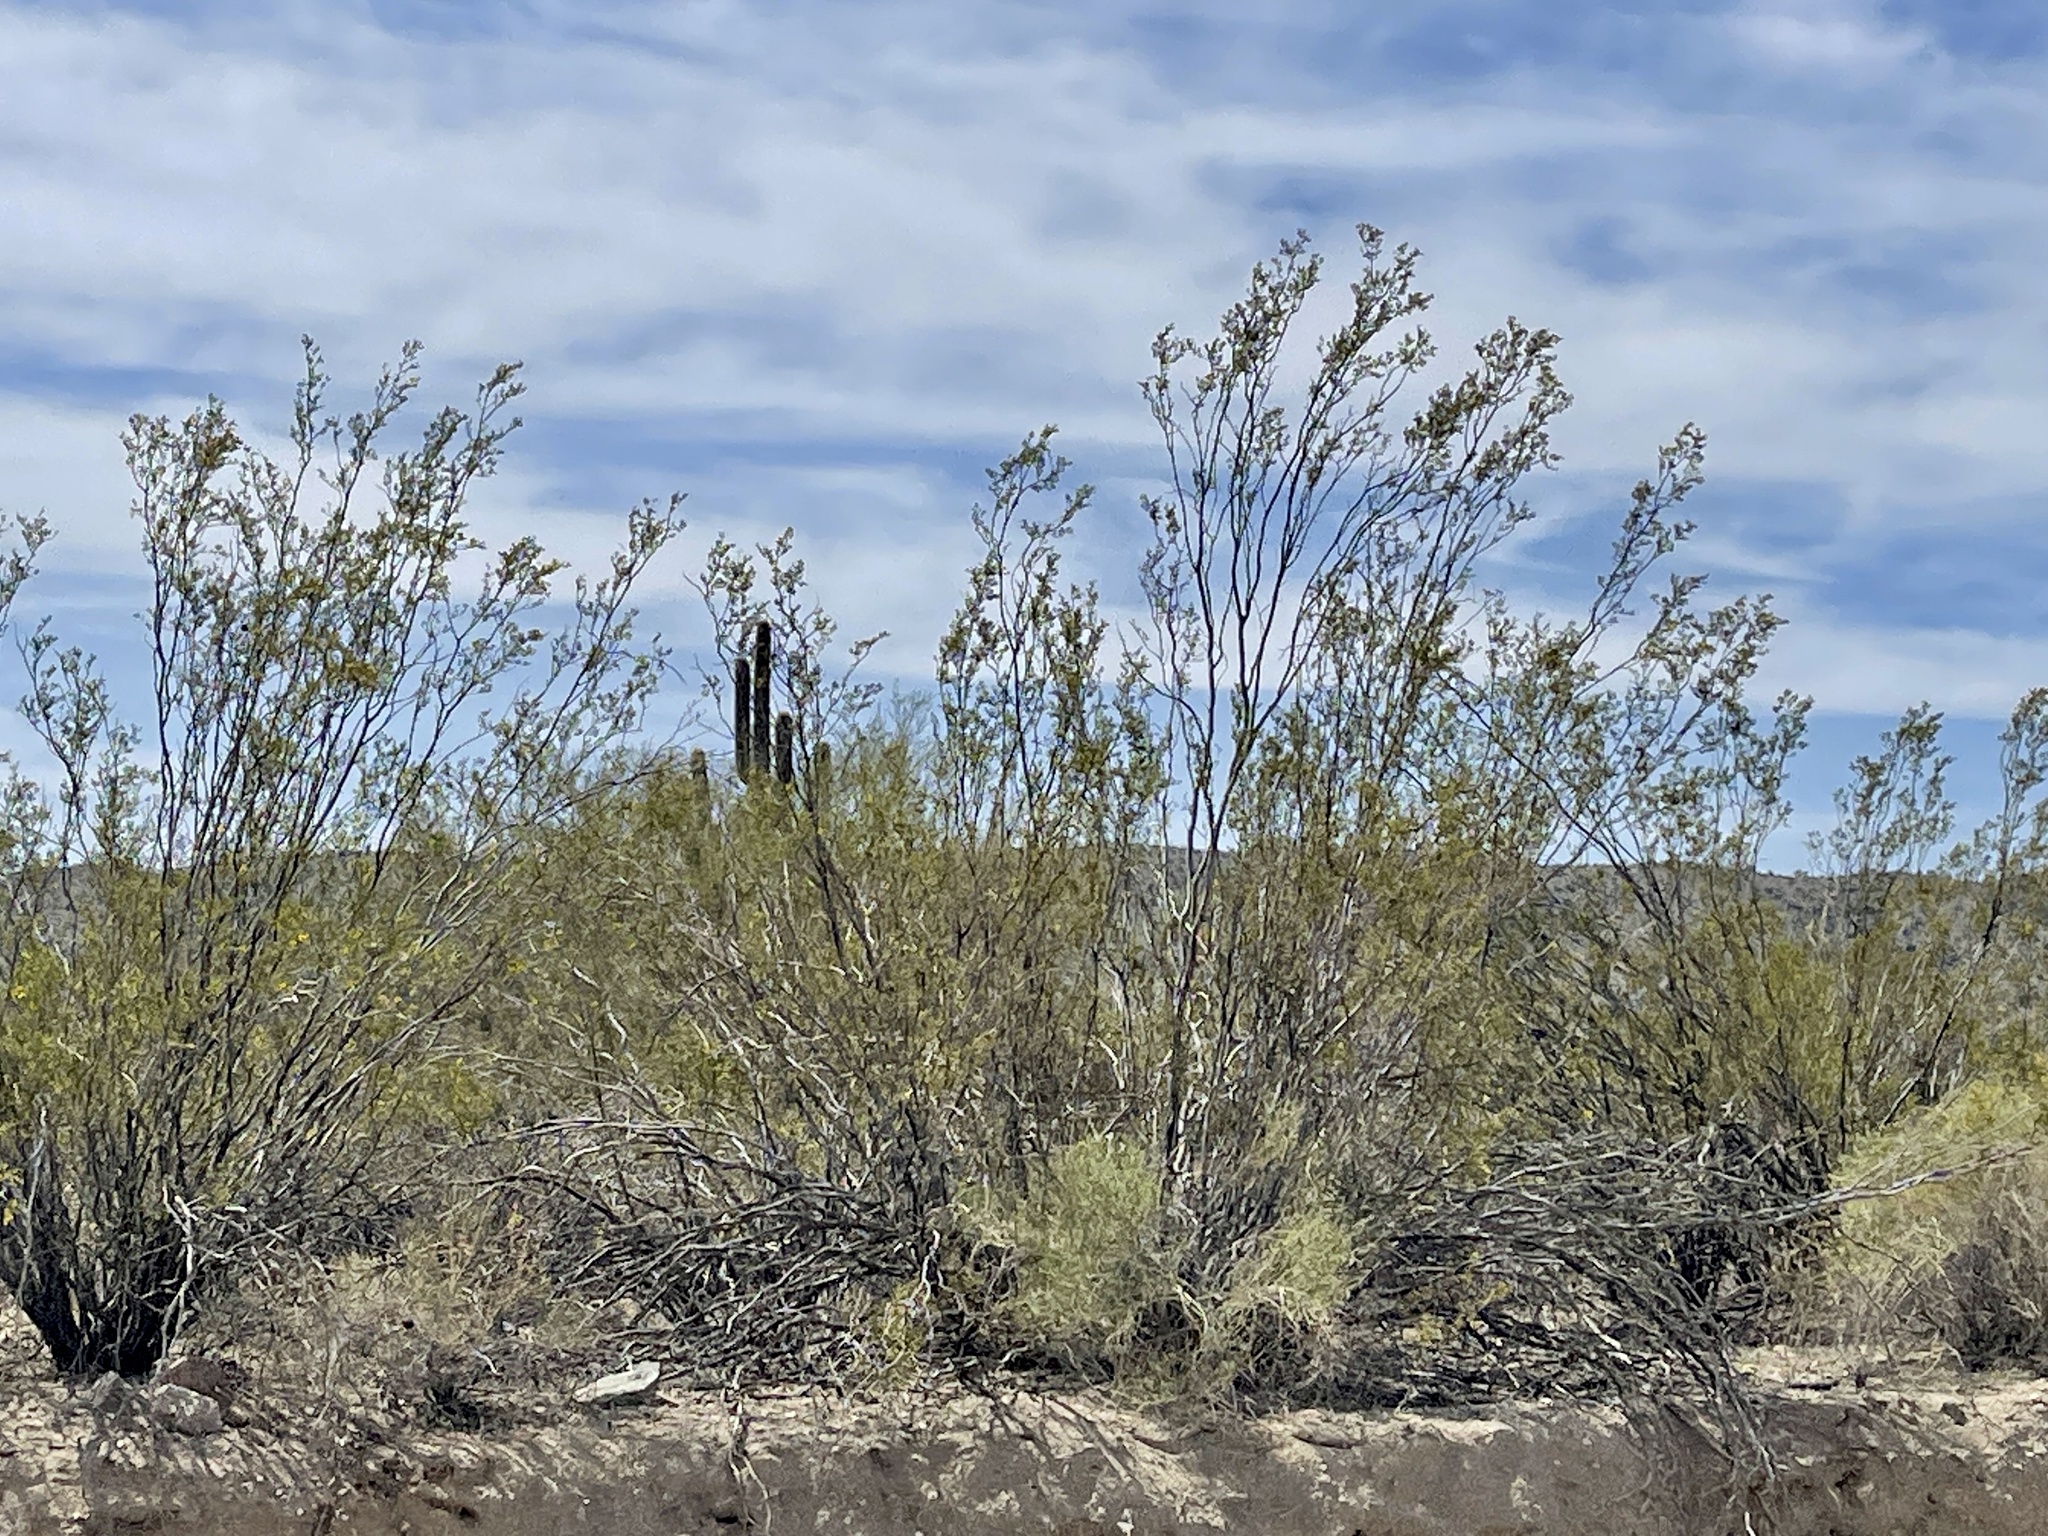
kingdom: Plantae
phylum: Tracheophyta
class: Magnoliopsida
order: Zygophyllales
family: Zygophyllaceae
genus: Larrea
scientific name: Larrea tridentata
